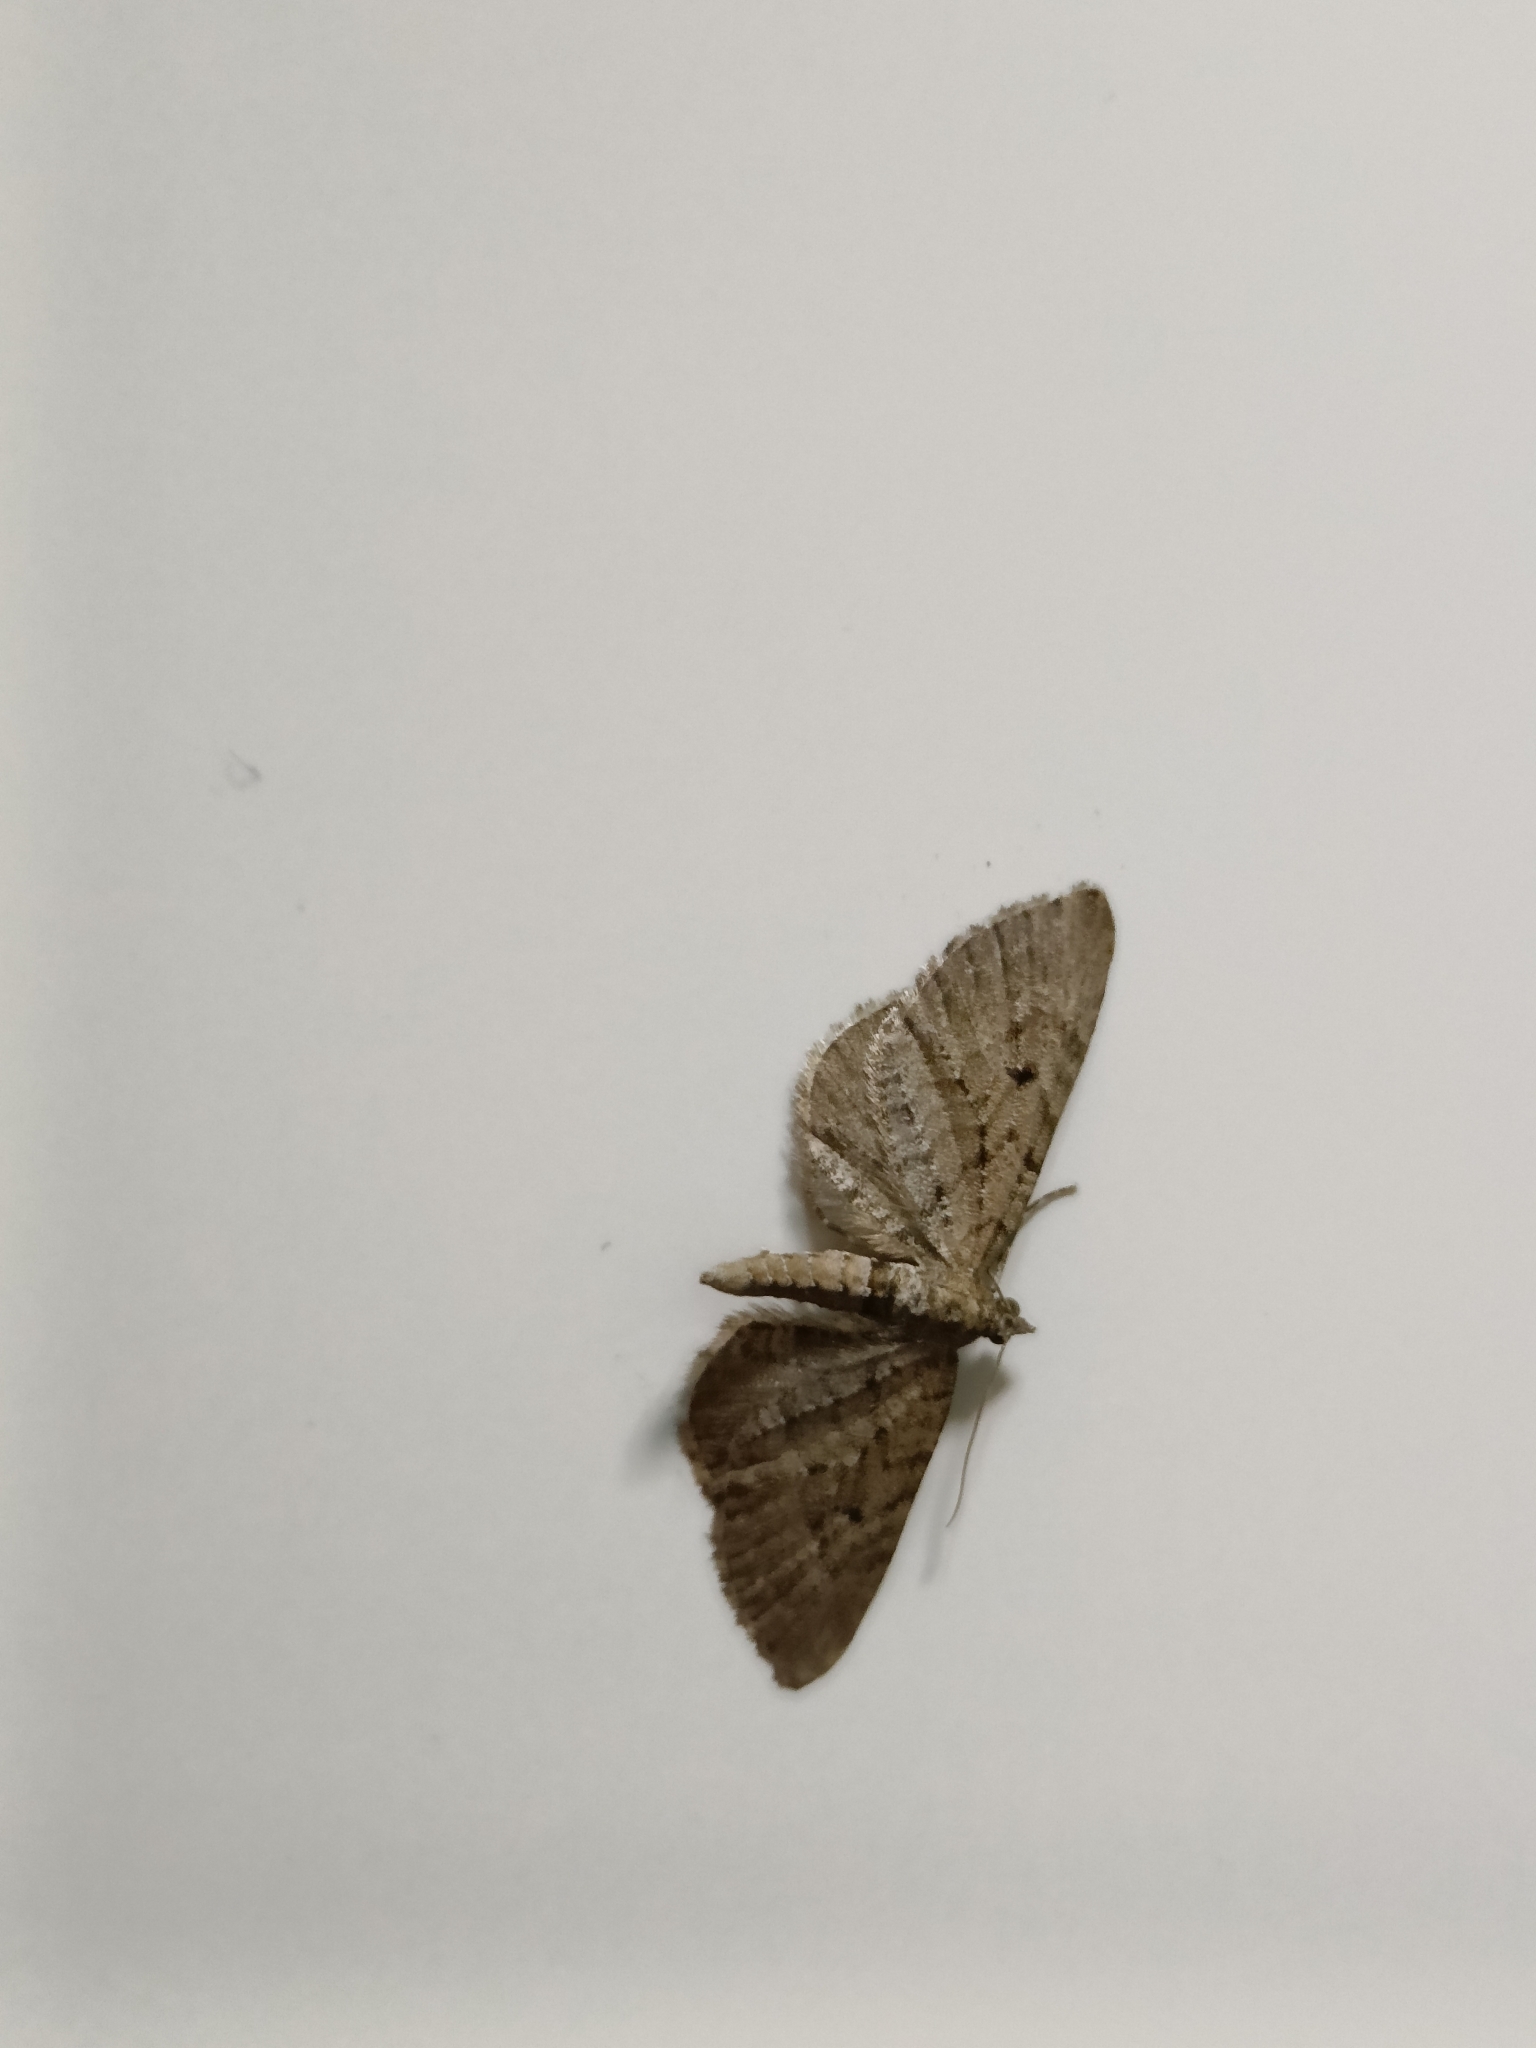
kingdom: Animalia
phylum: Arthropoda
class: Insecta
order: Lepidoptera
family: Geometridae
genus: Eupithecia
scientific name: Eupithecia intricata
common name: Freyers pug
